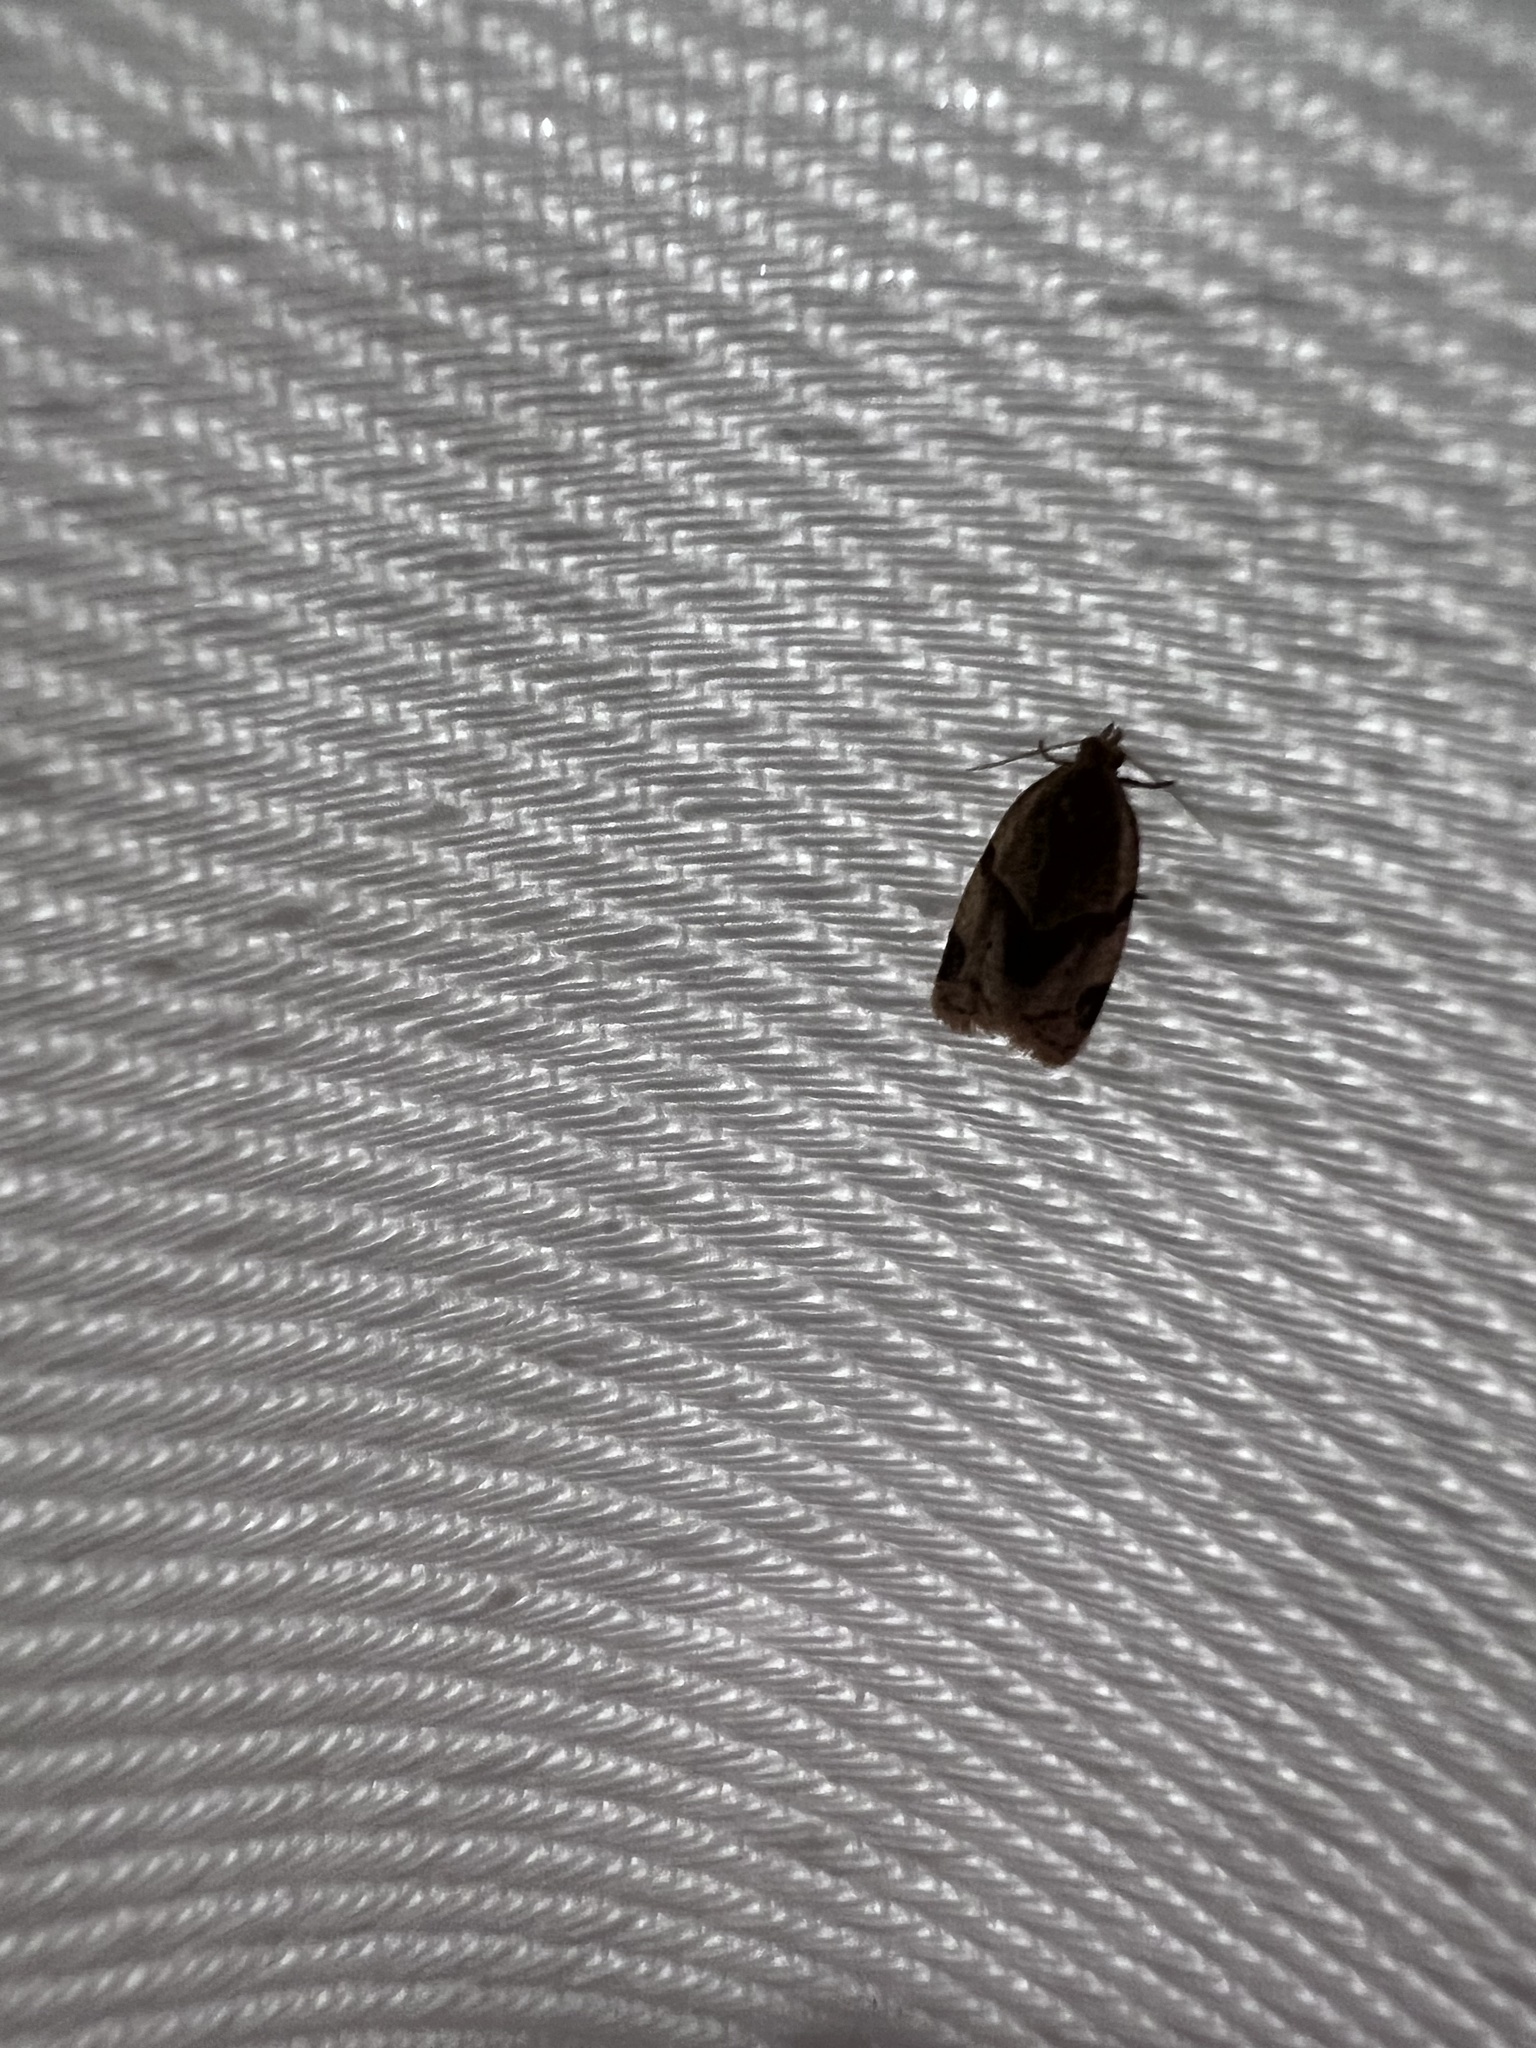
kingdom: Animalia
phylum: Arthropoda
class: Insecta
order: Lepidoptera
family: Tortricidae
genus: Clepsis
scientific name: Clepsis peritana
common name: Garden tortrix
